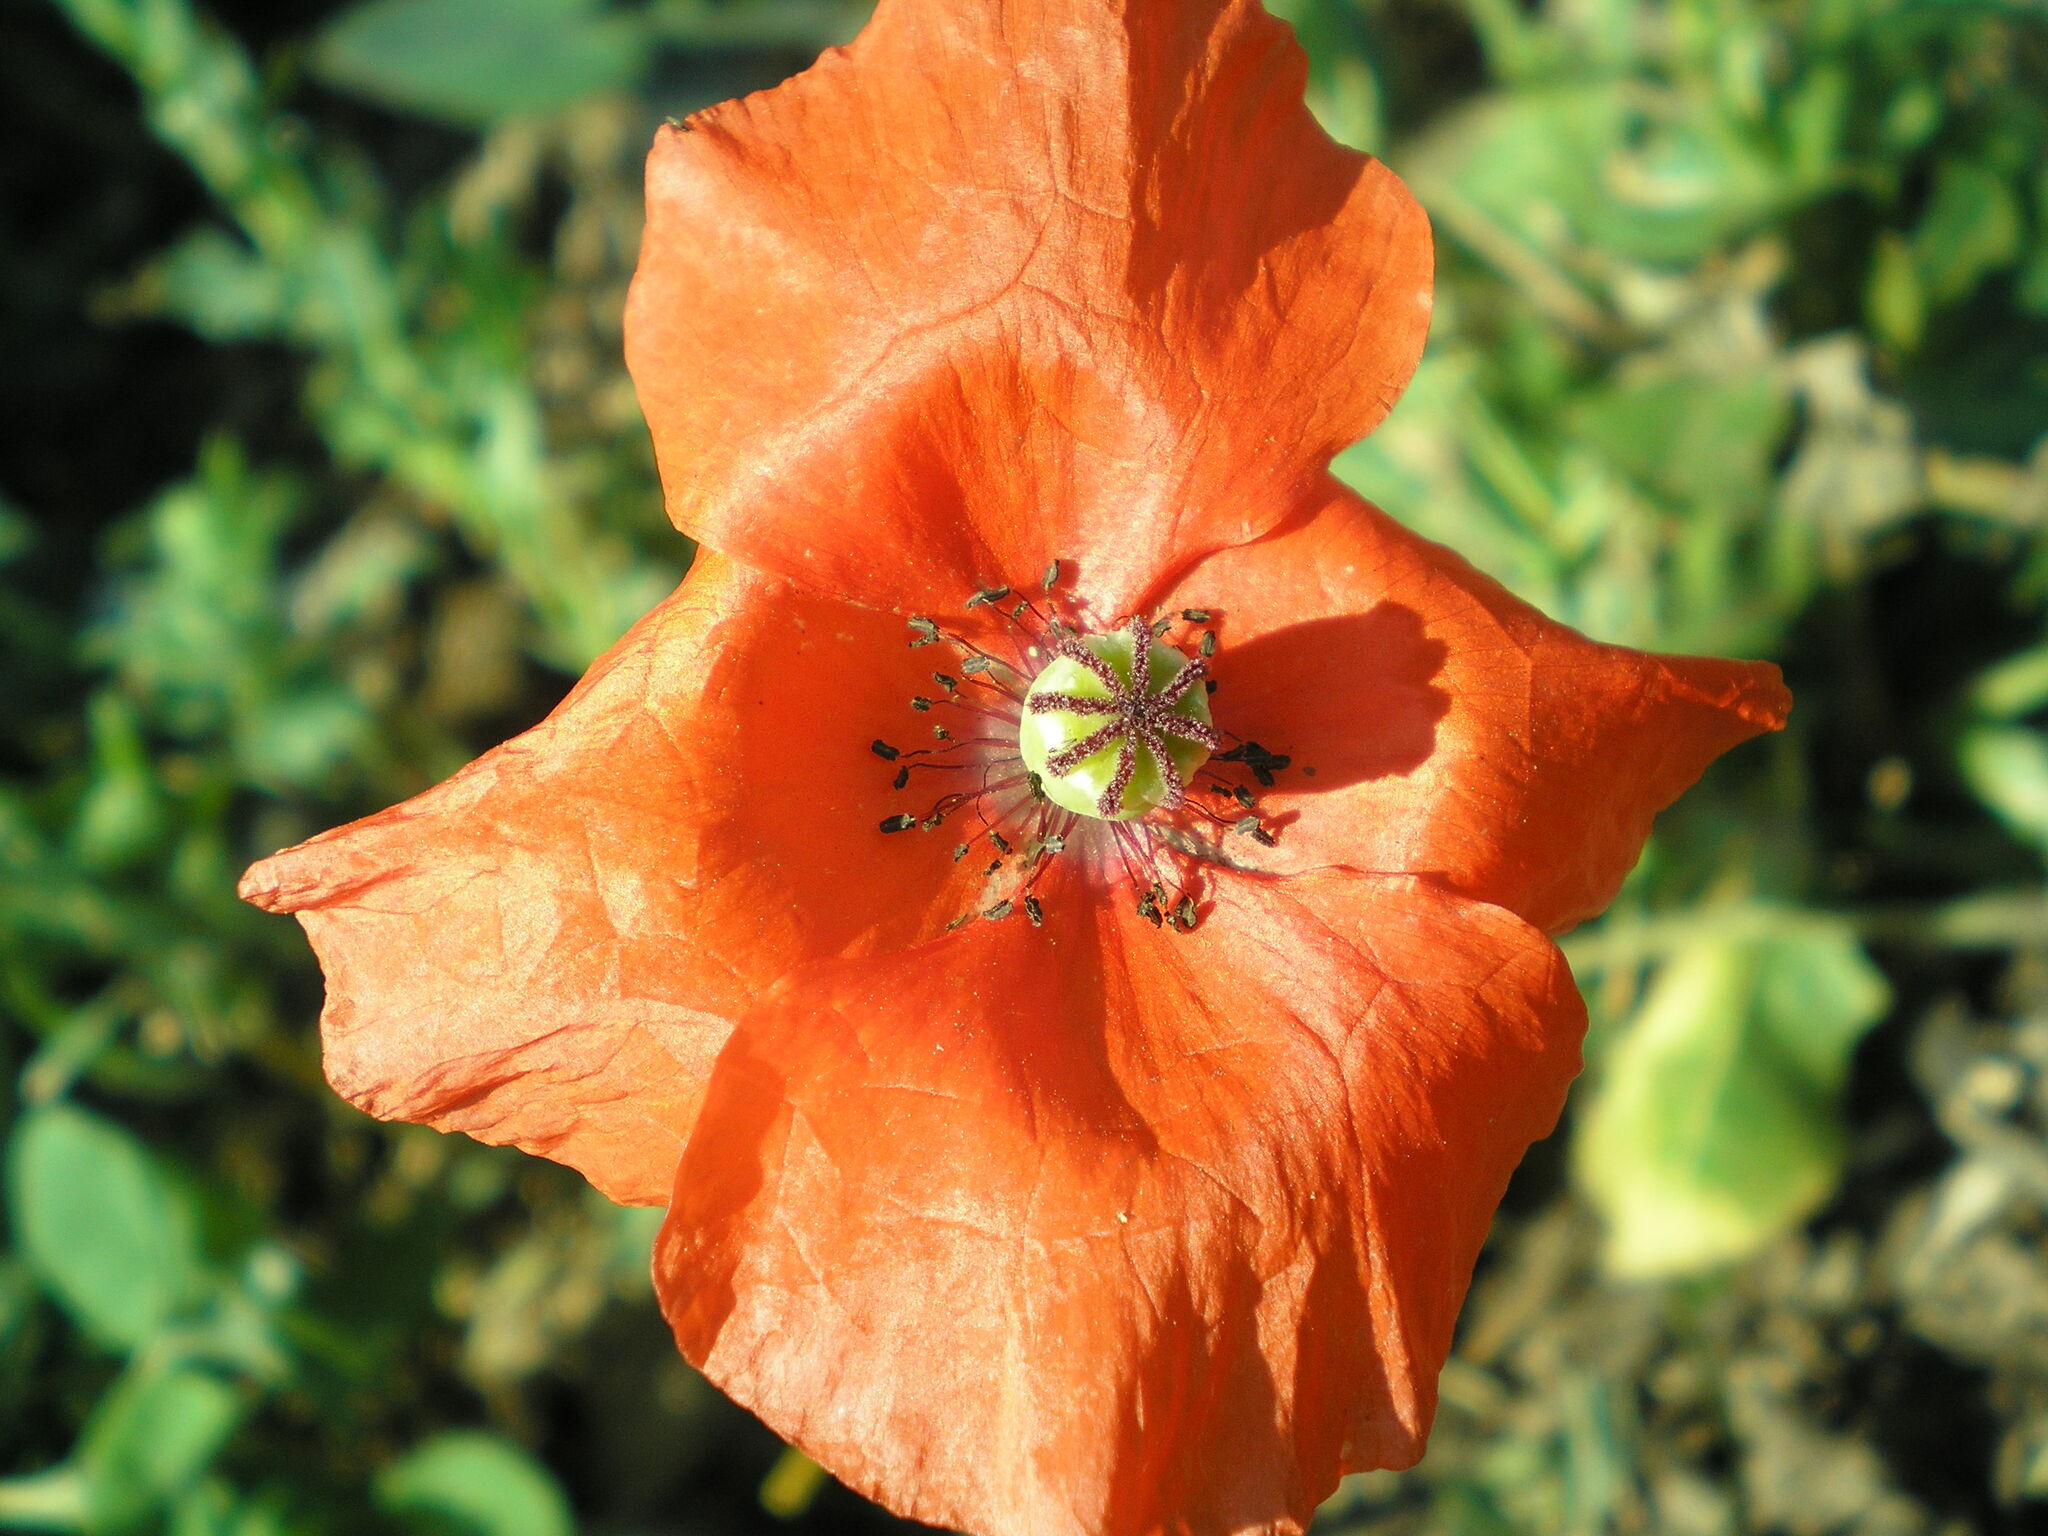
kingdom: Plantae
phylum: Tracheophyta
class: Magnoliopsida
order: Ranunculales
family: Papaveraceae
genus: Papaver
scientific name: Papaver rhoeas
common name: Corn poppy
